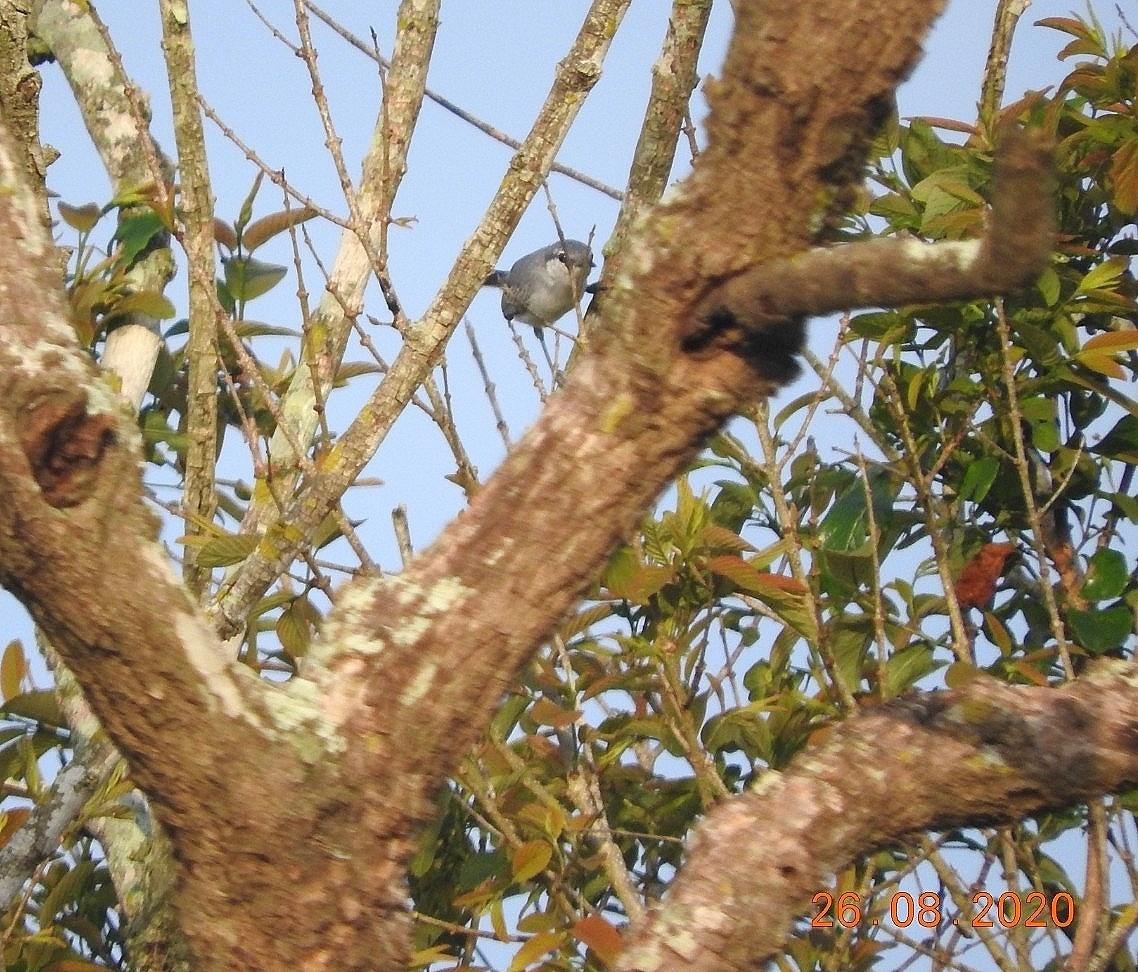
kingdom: Animalia
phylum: Chordata
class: Aves
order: Passeriformes
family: Polioptilidae
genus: Polioptila
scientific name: Polioptila caerulea
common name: Blue-gray gnatcatcher
